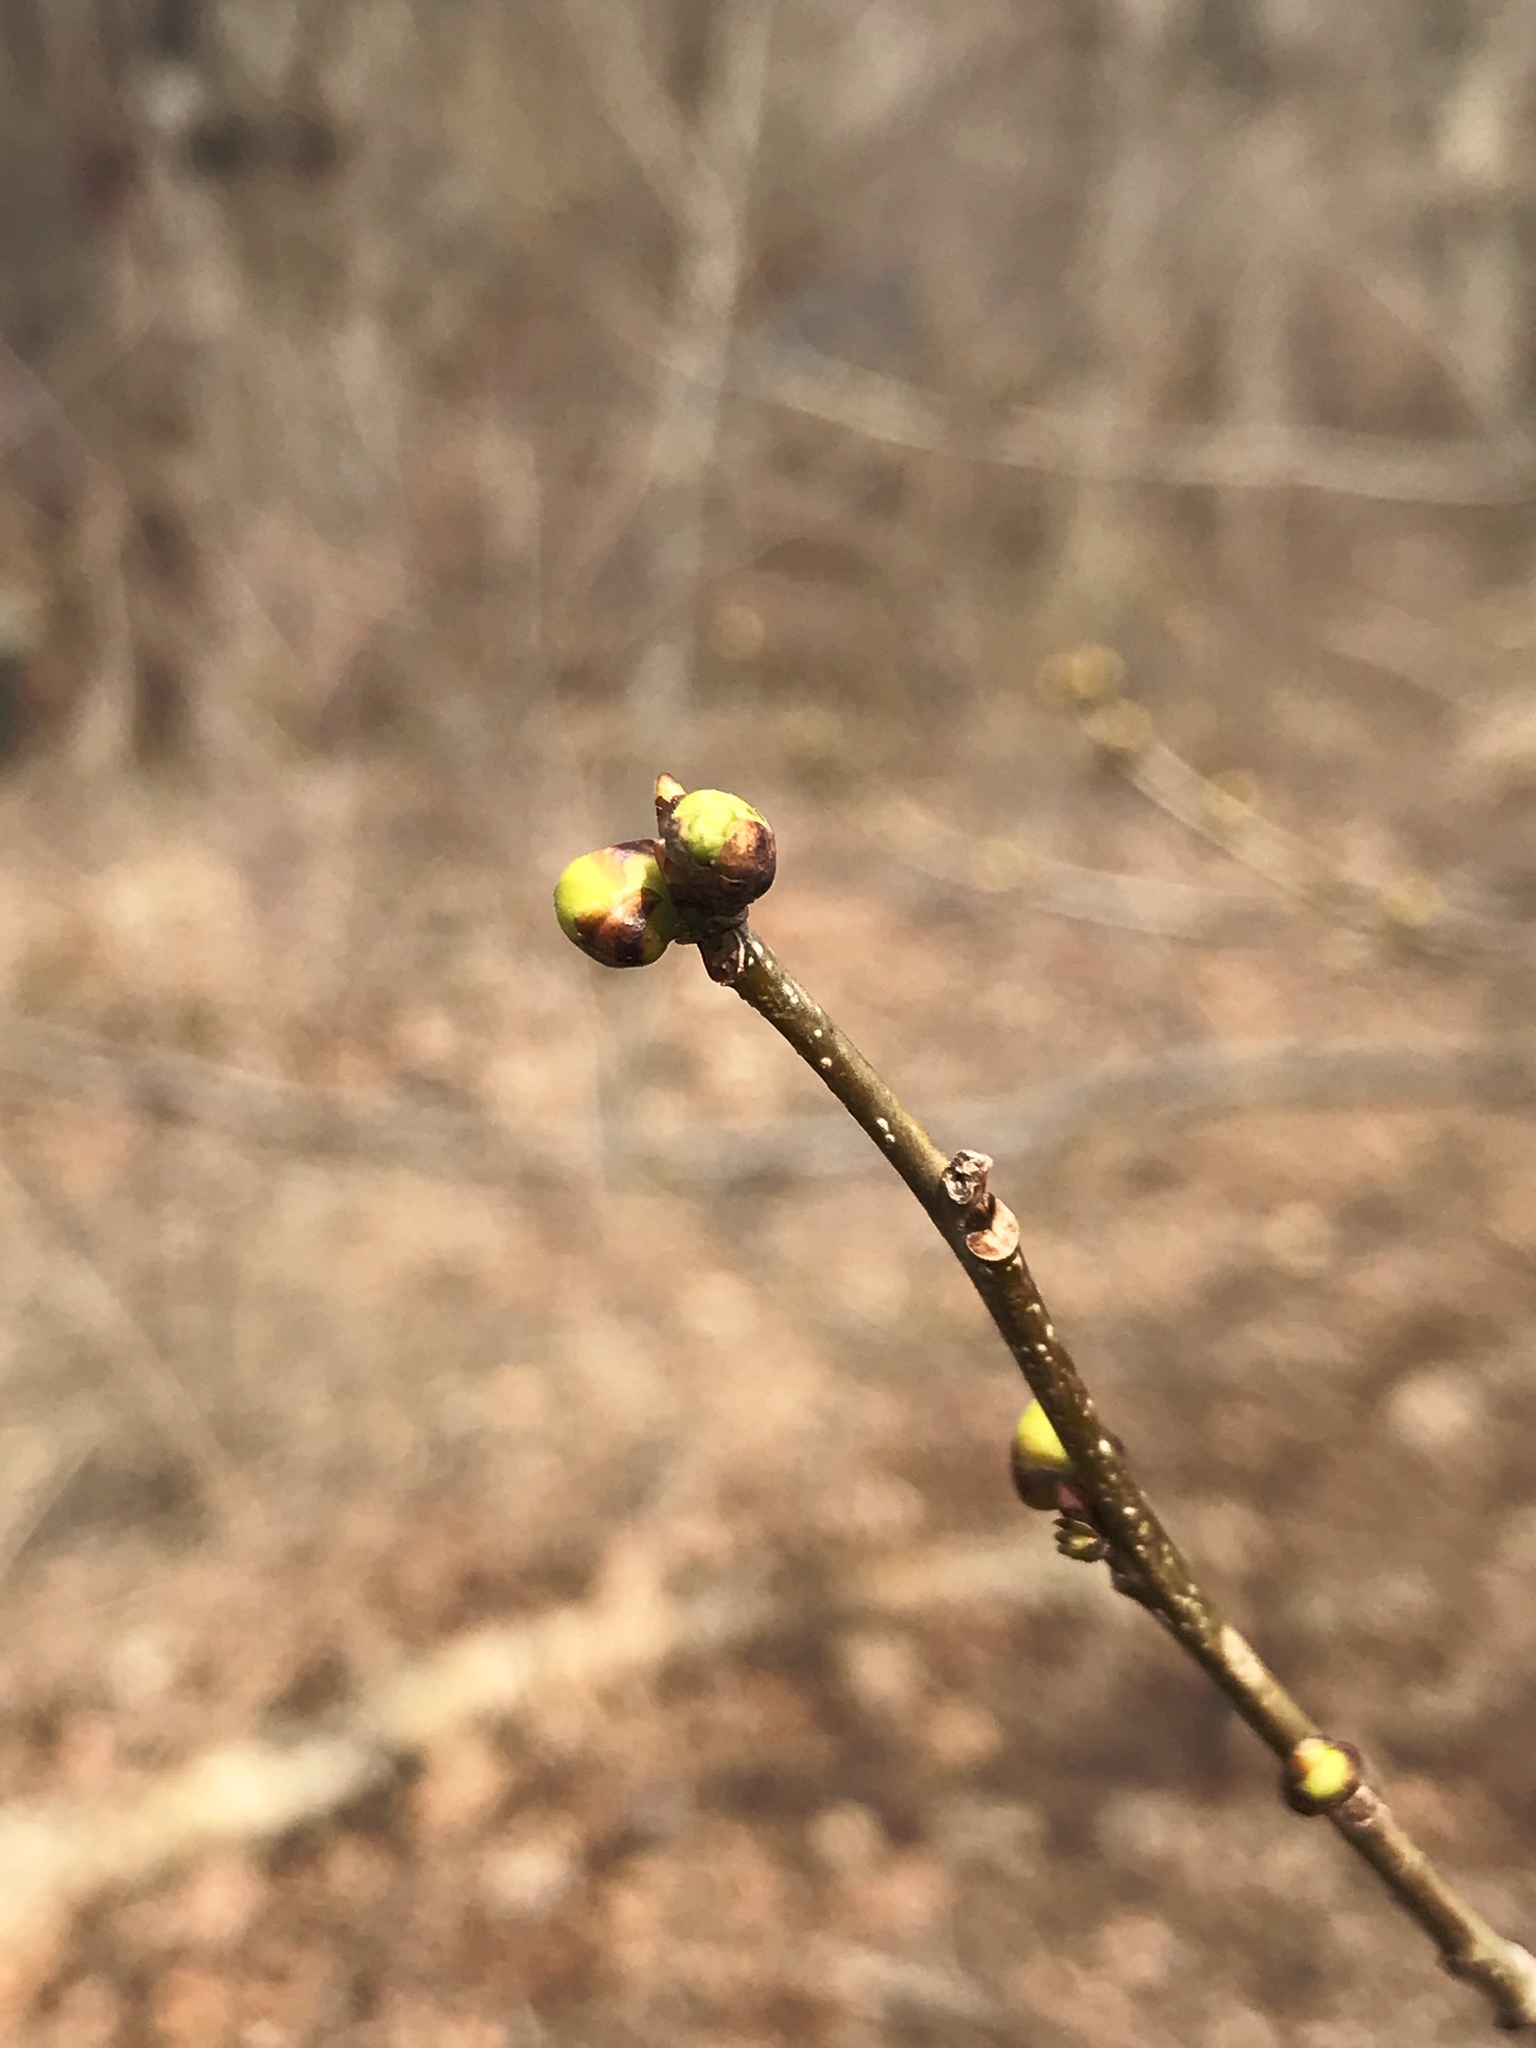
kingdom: Plantae
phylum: Tracheophyta
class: Magnoliopsida
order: Laurales
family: Lauraceae
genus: Lindera
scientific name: Lindera benzoin
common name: Spicebush
